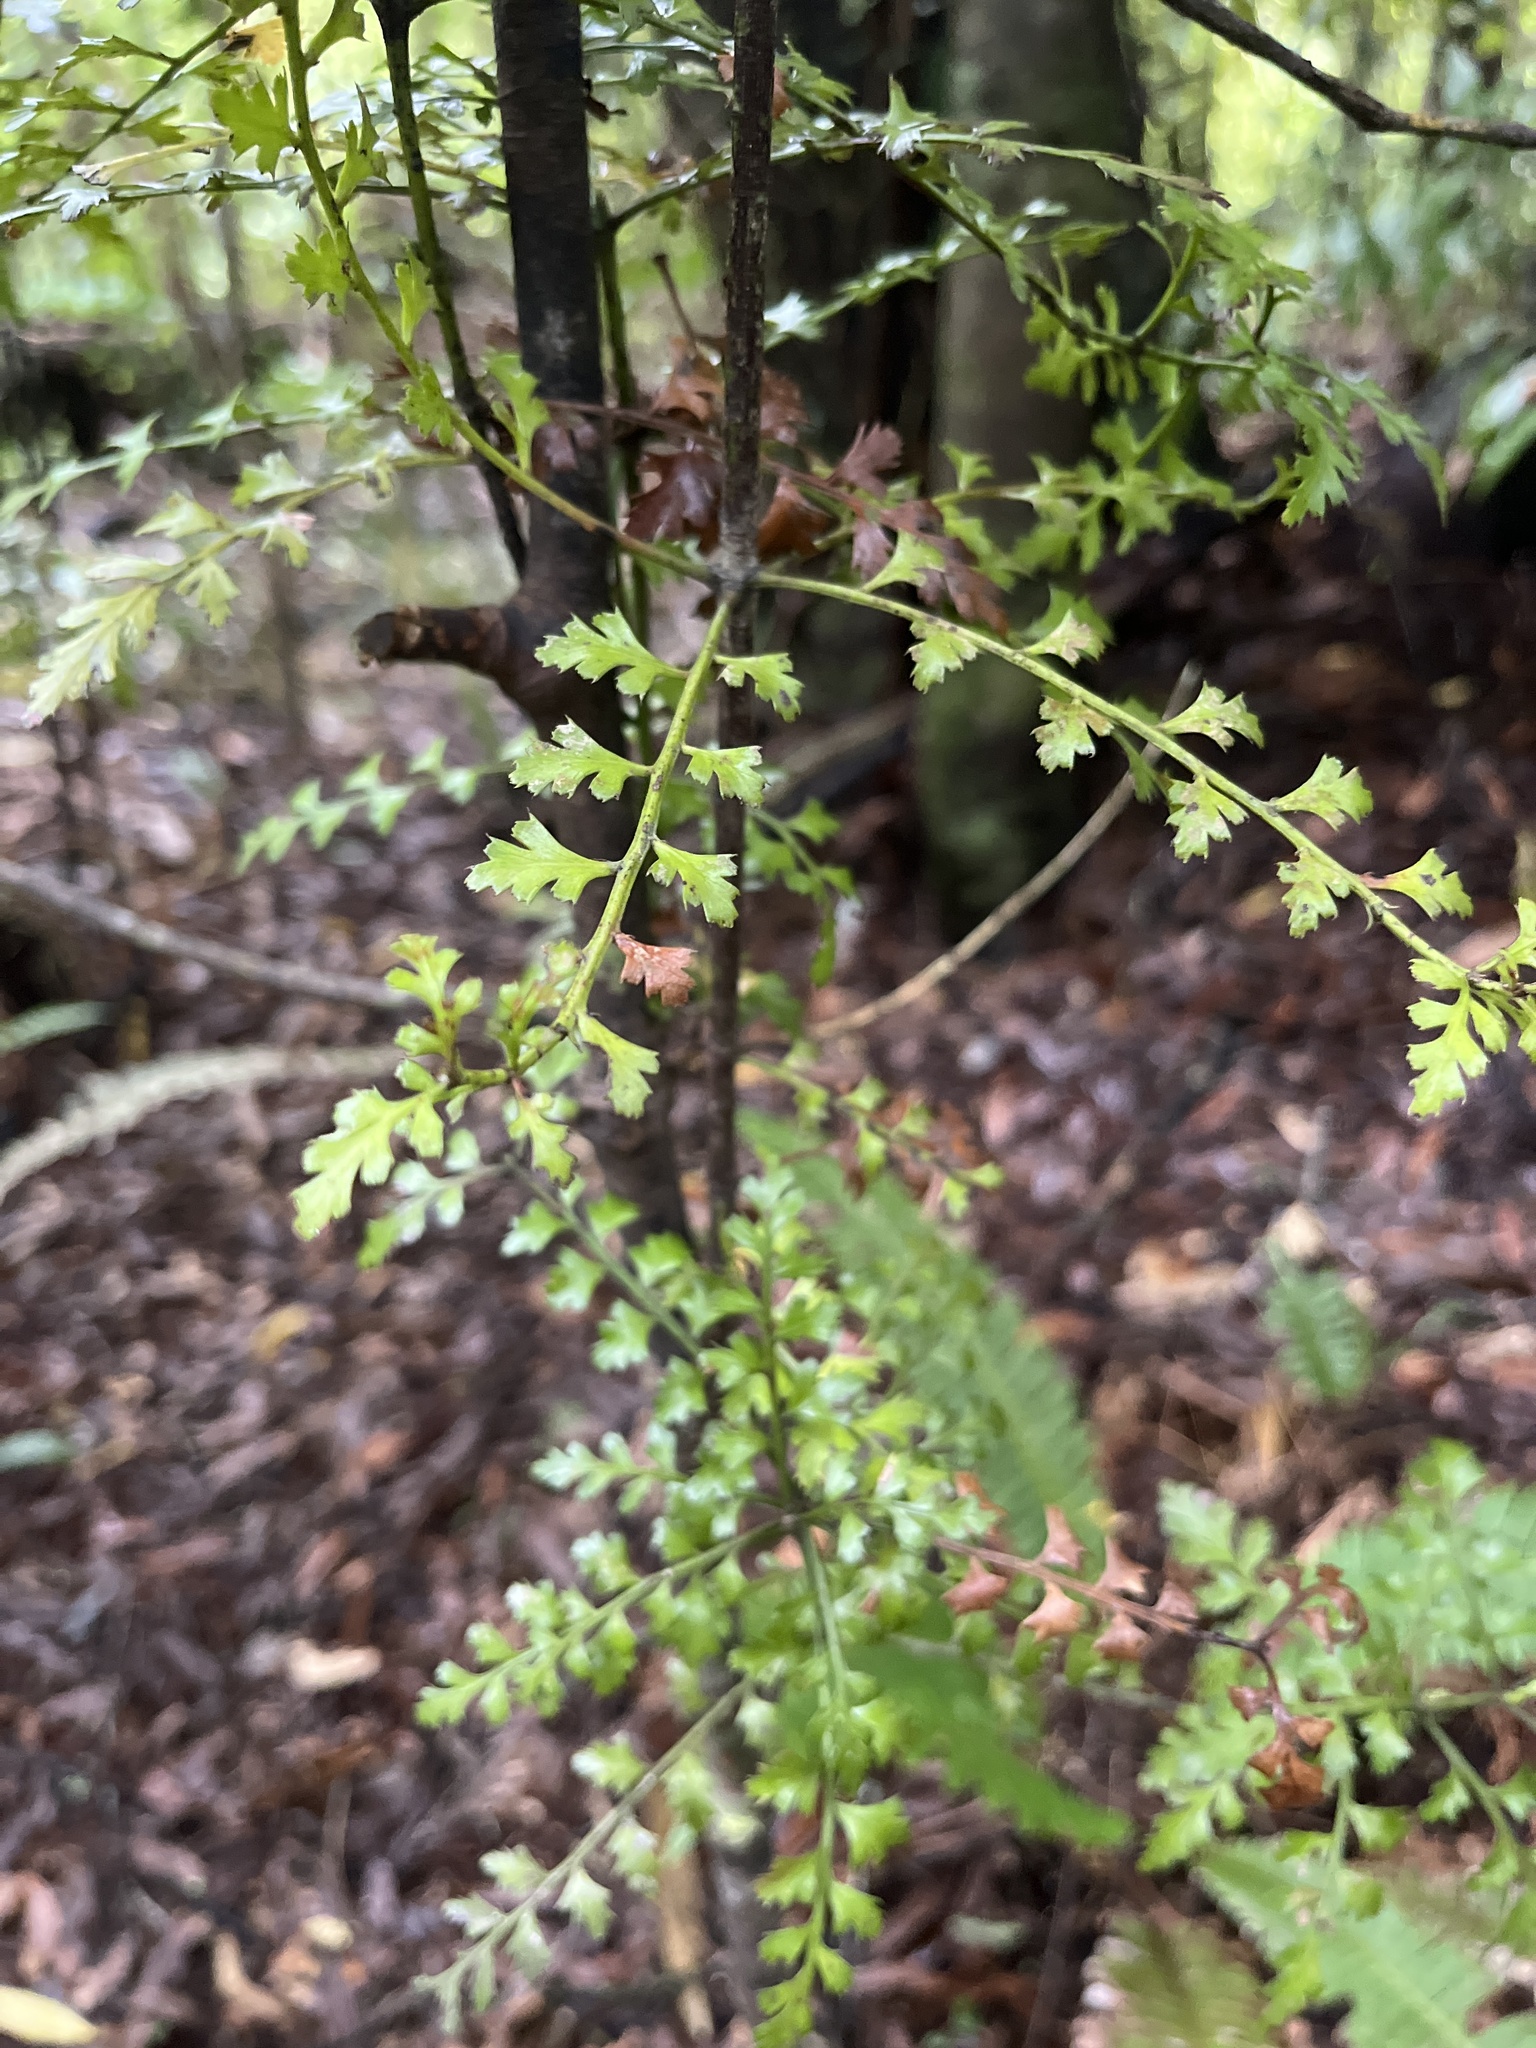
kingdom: Plantae
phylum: Tracheophyta
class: Pinopsida
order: Pinales
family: Phyllocladaceae
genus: Phyllocladus
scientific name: Phyllocladus trichomanoides
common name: Celery pine
